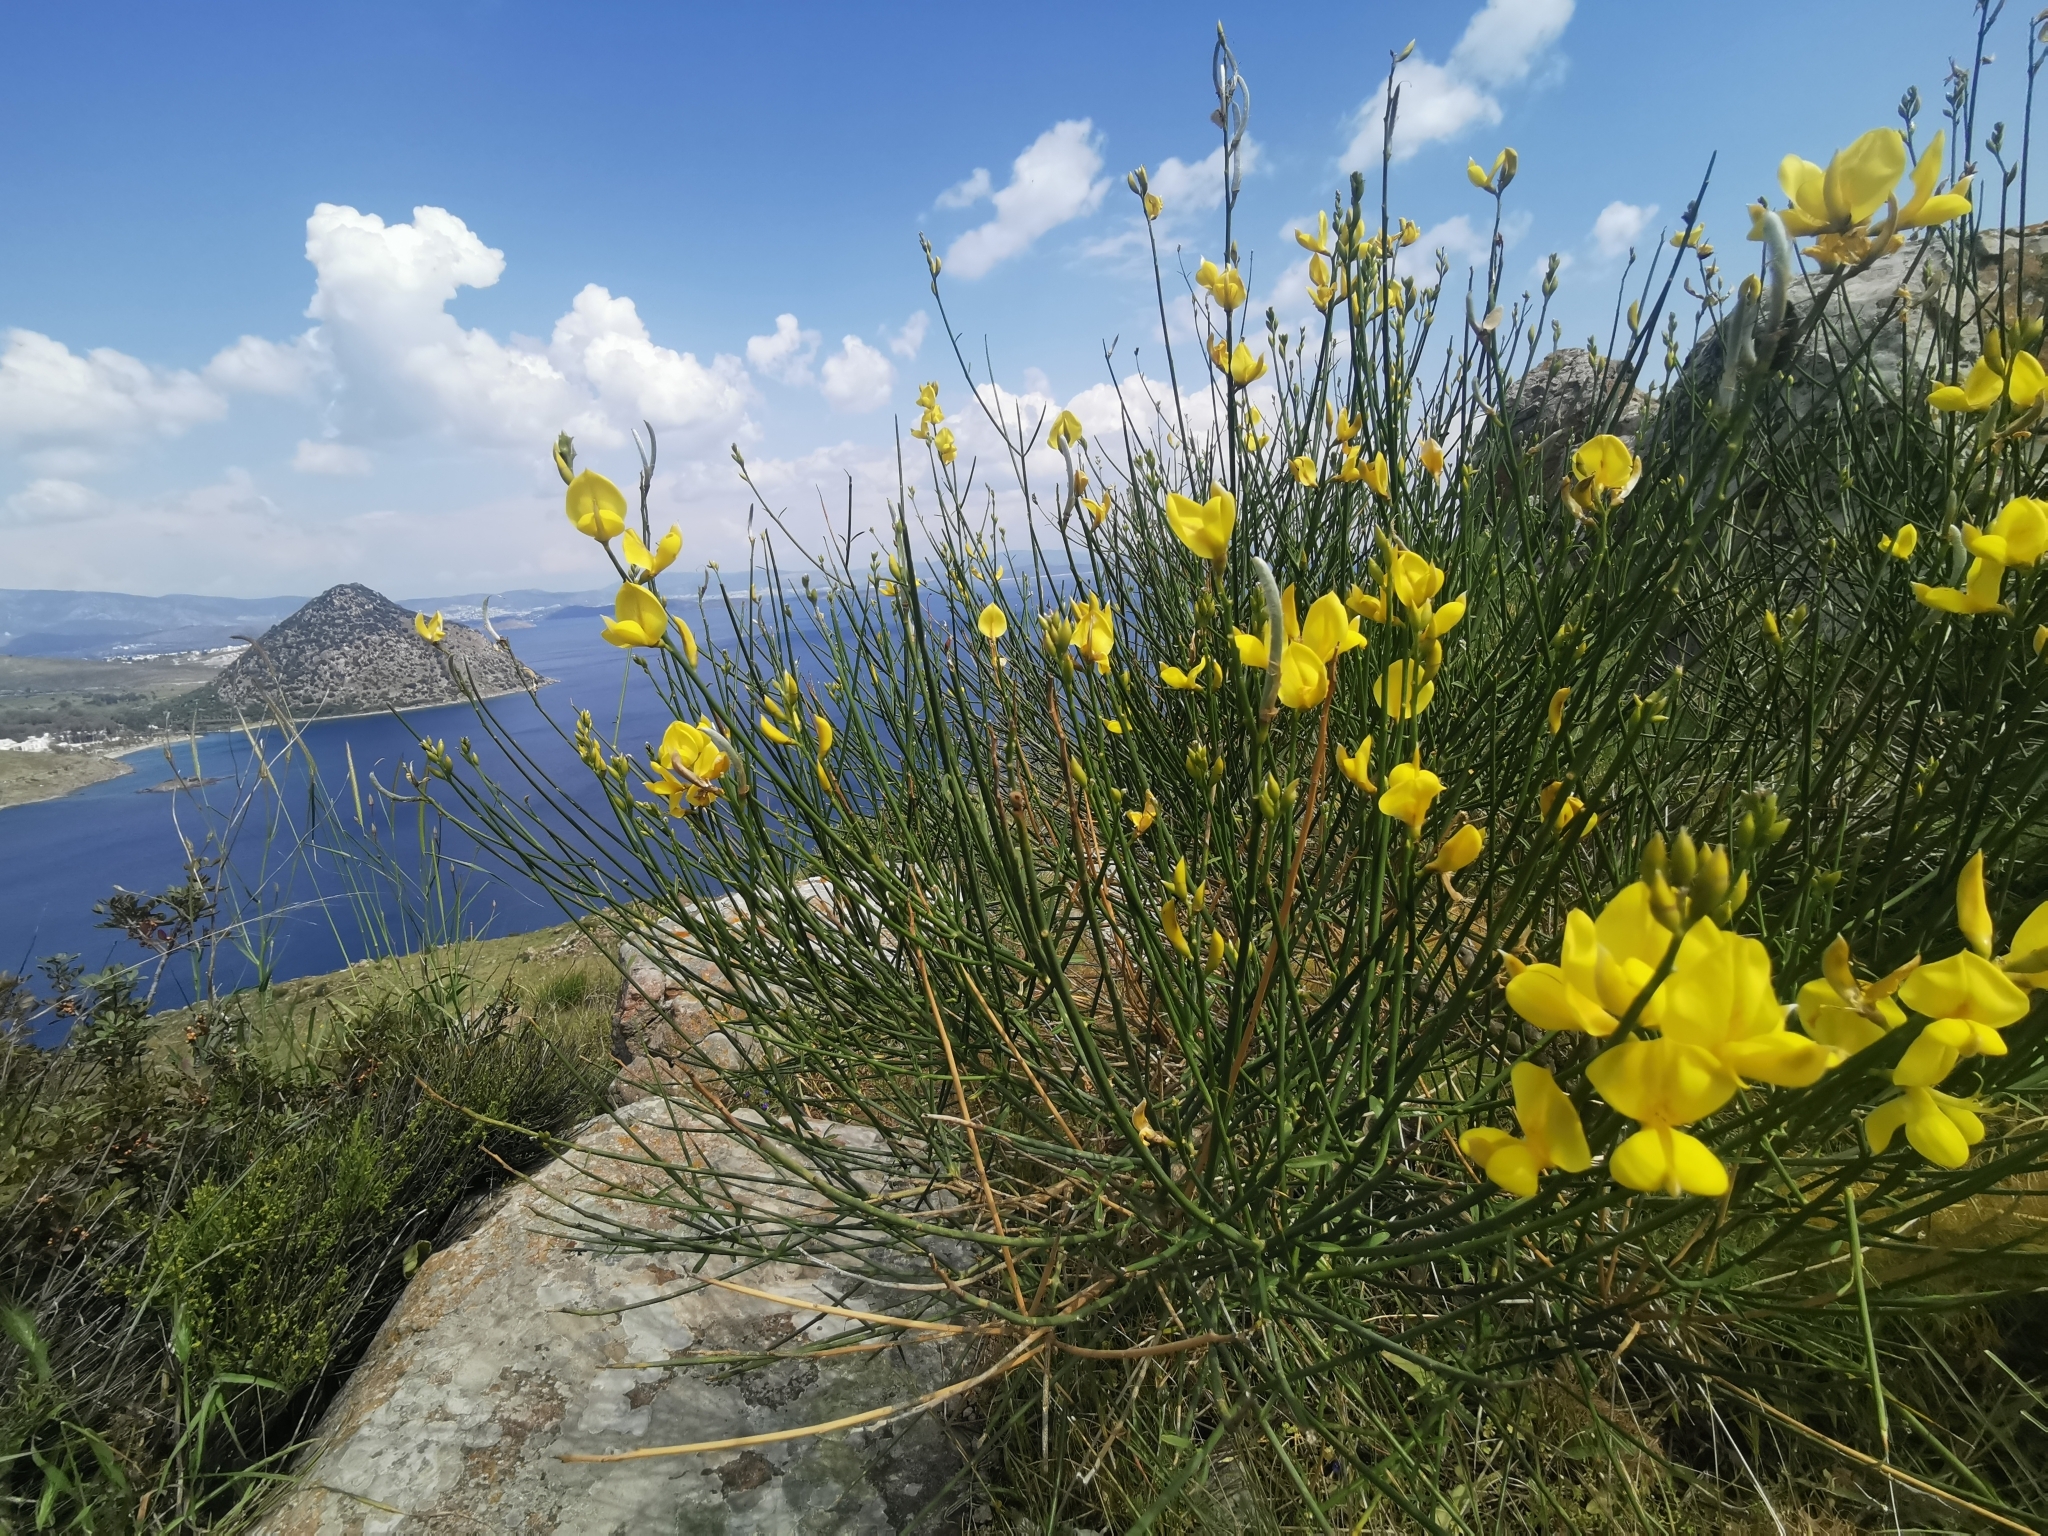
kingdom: Plantae
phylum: Tracheophyta
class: Magnoliopsida
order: Fabales
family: Fabaceae
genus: Spartium
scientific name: Spartium junceum
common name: Spanish broom
